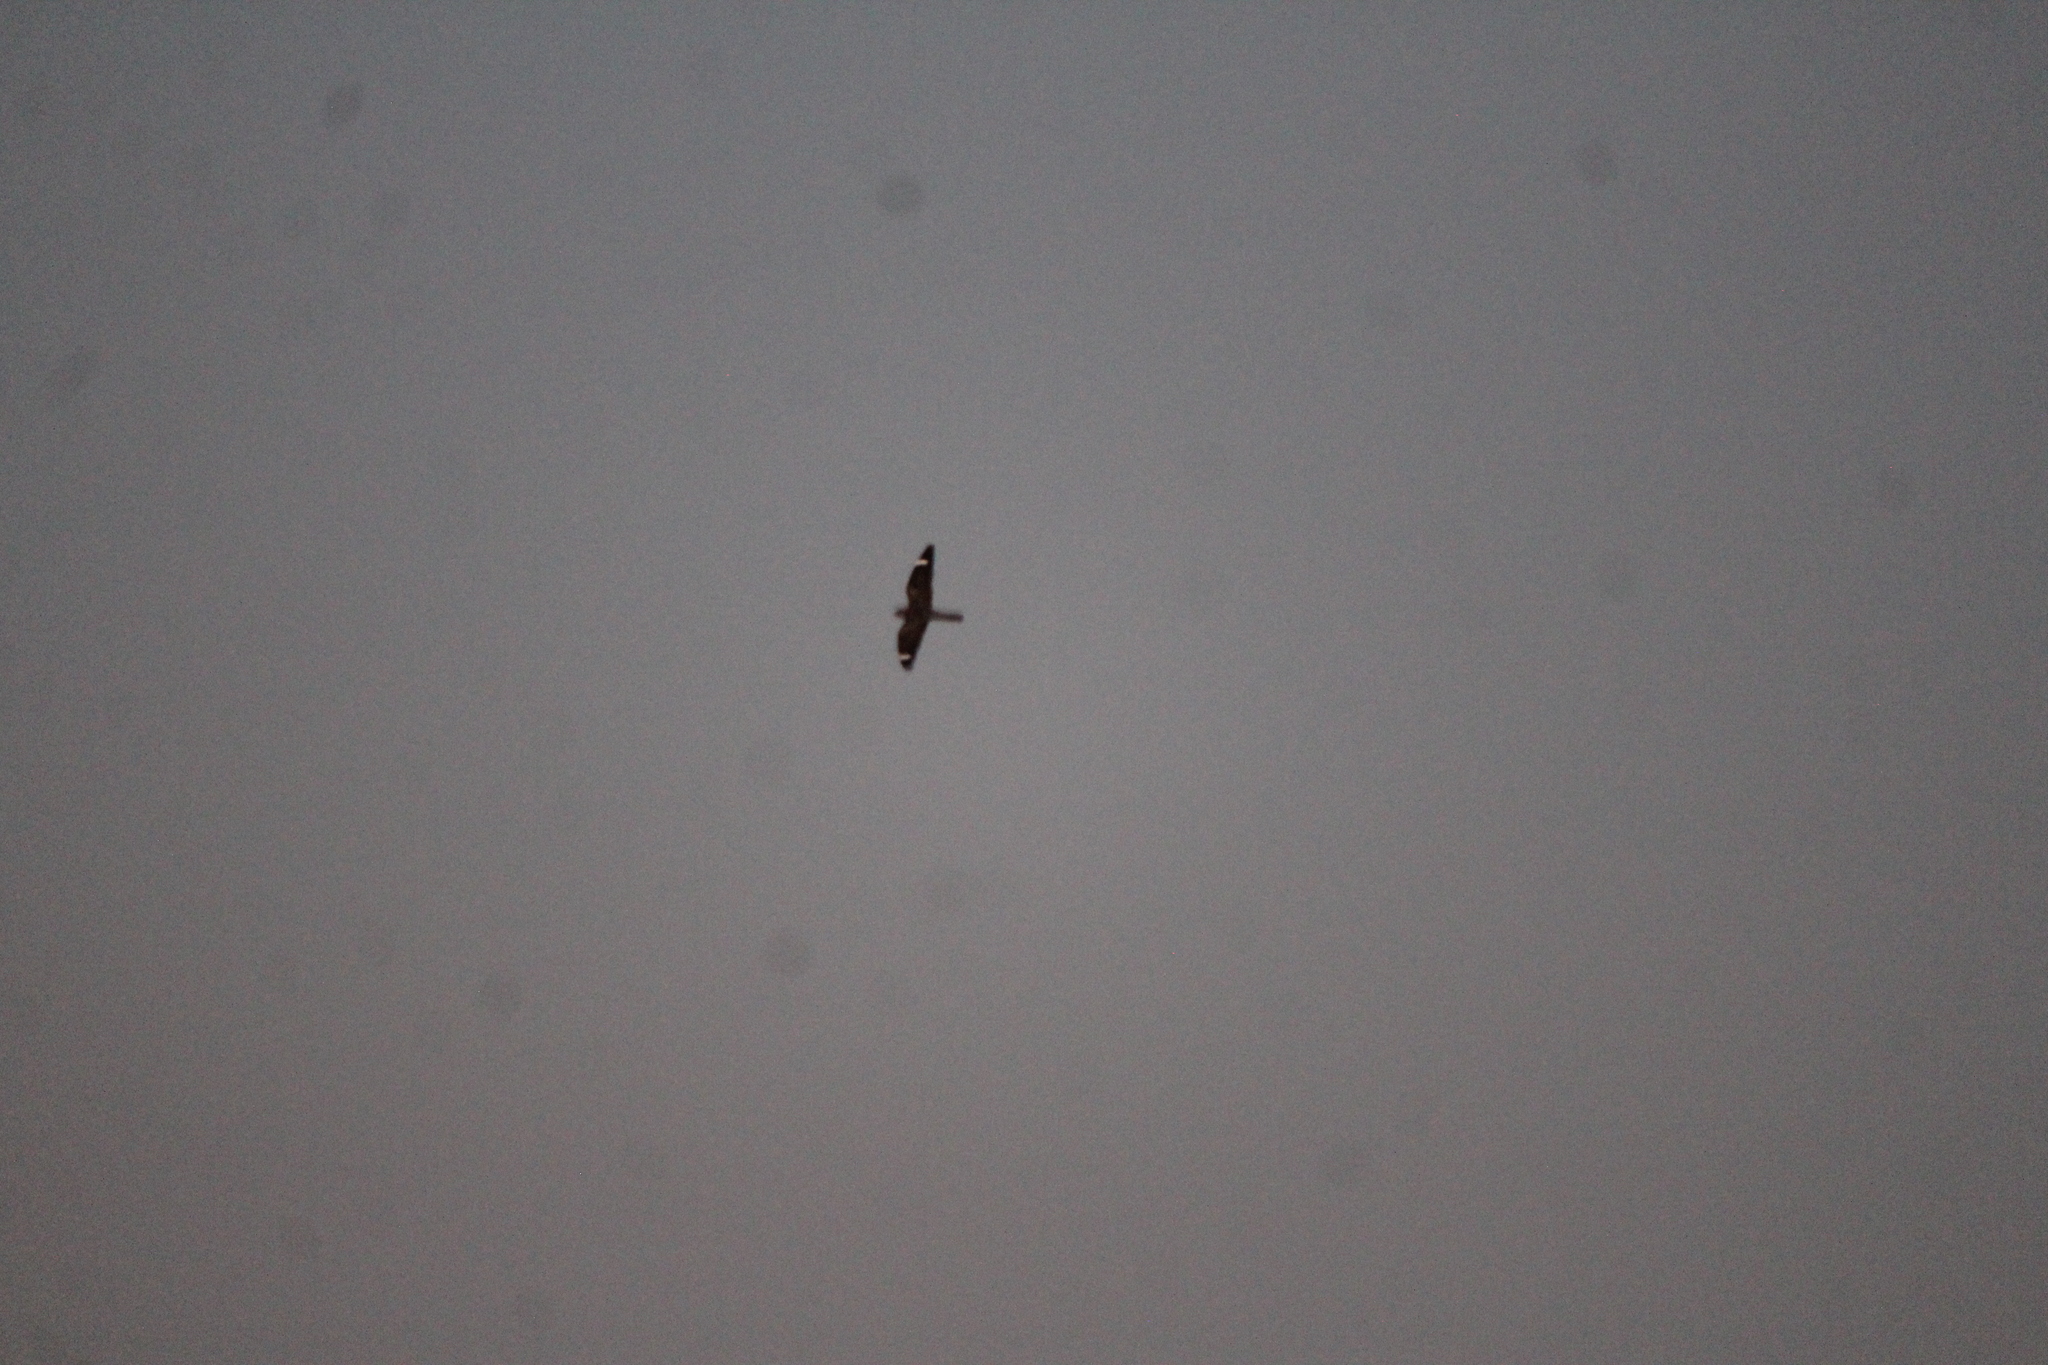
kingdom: Animalia
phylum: Chordata
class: Aves
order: Caprimulgiformes
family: Caprimulgidae
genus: Chordeiles
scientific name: Chordeiles acutipennis
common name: Lesser nighthawk
